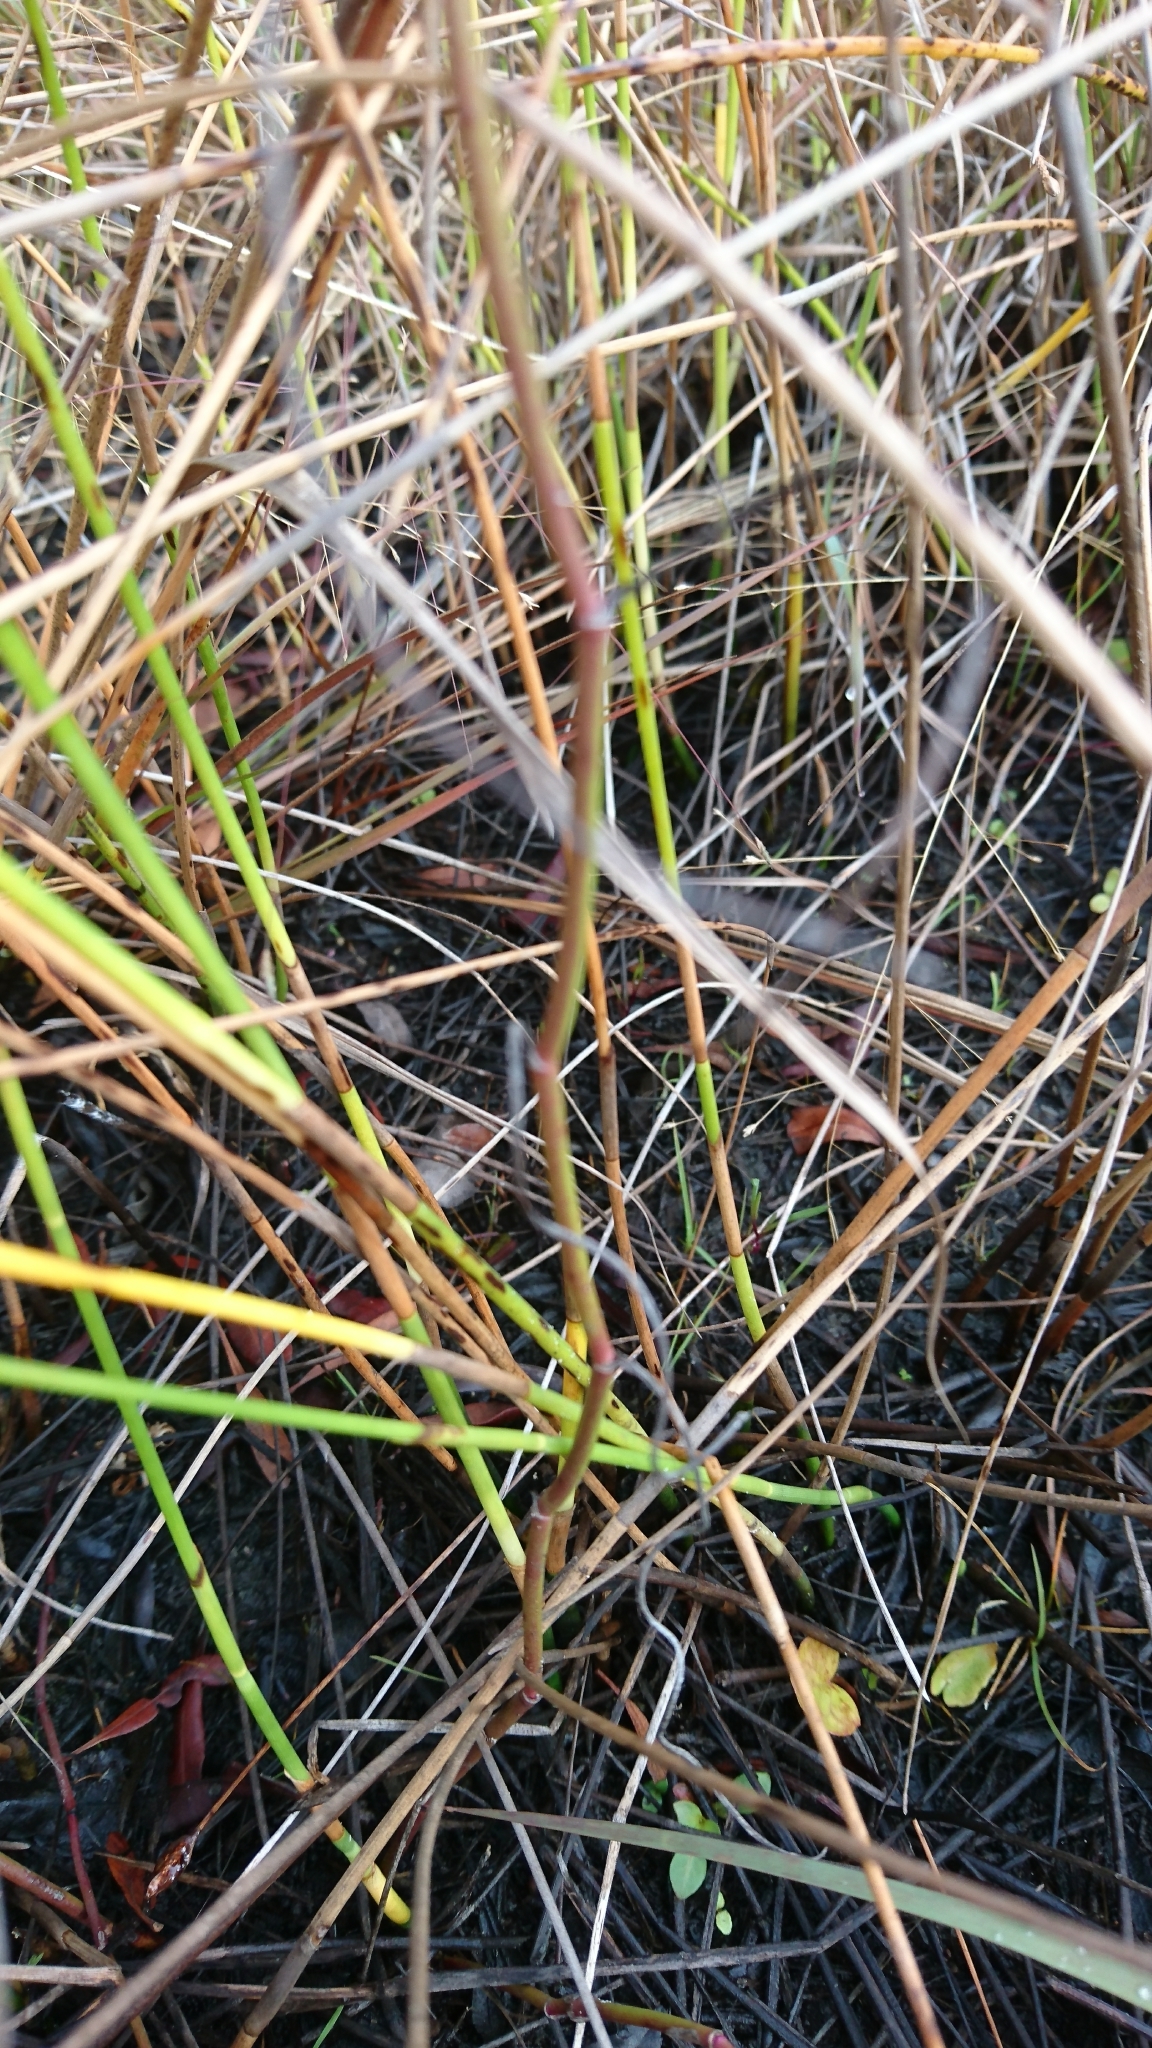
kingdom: Plantae
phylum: Tracheophyta
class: Magnoliopsida
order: Asterales
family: Asteraceae
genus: Symphyotrichum
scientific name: Symphyotrichum tenuifolium
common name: Perennial salt-marsh aster
